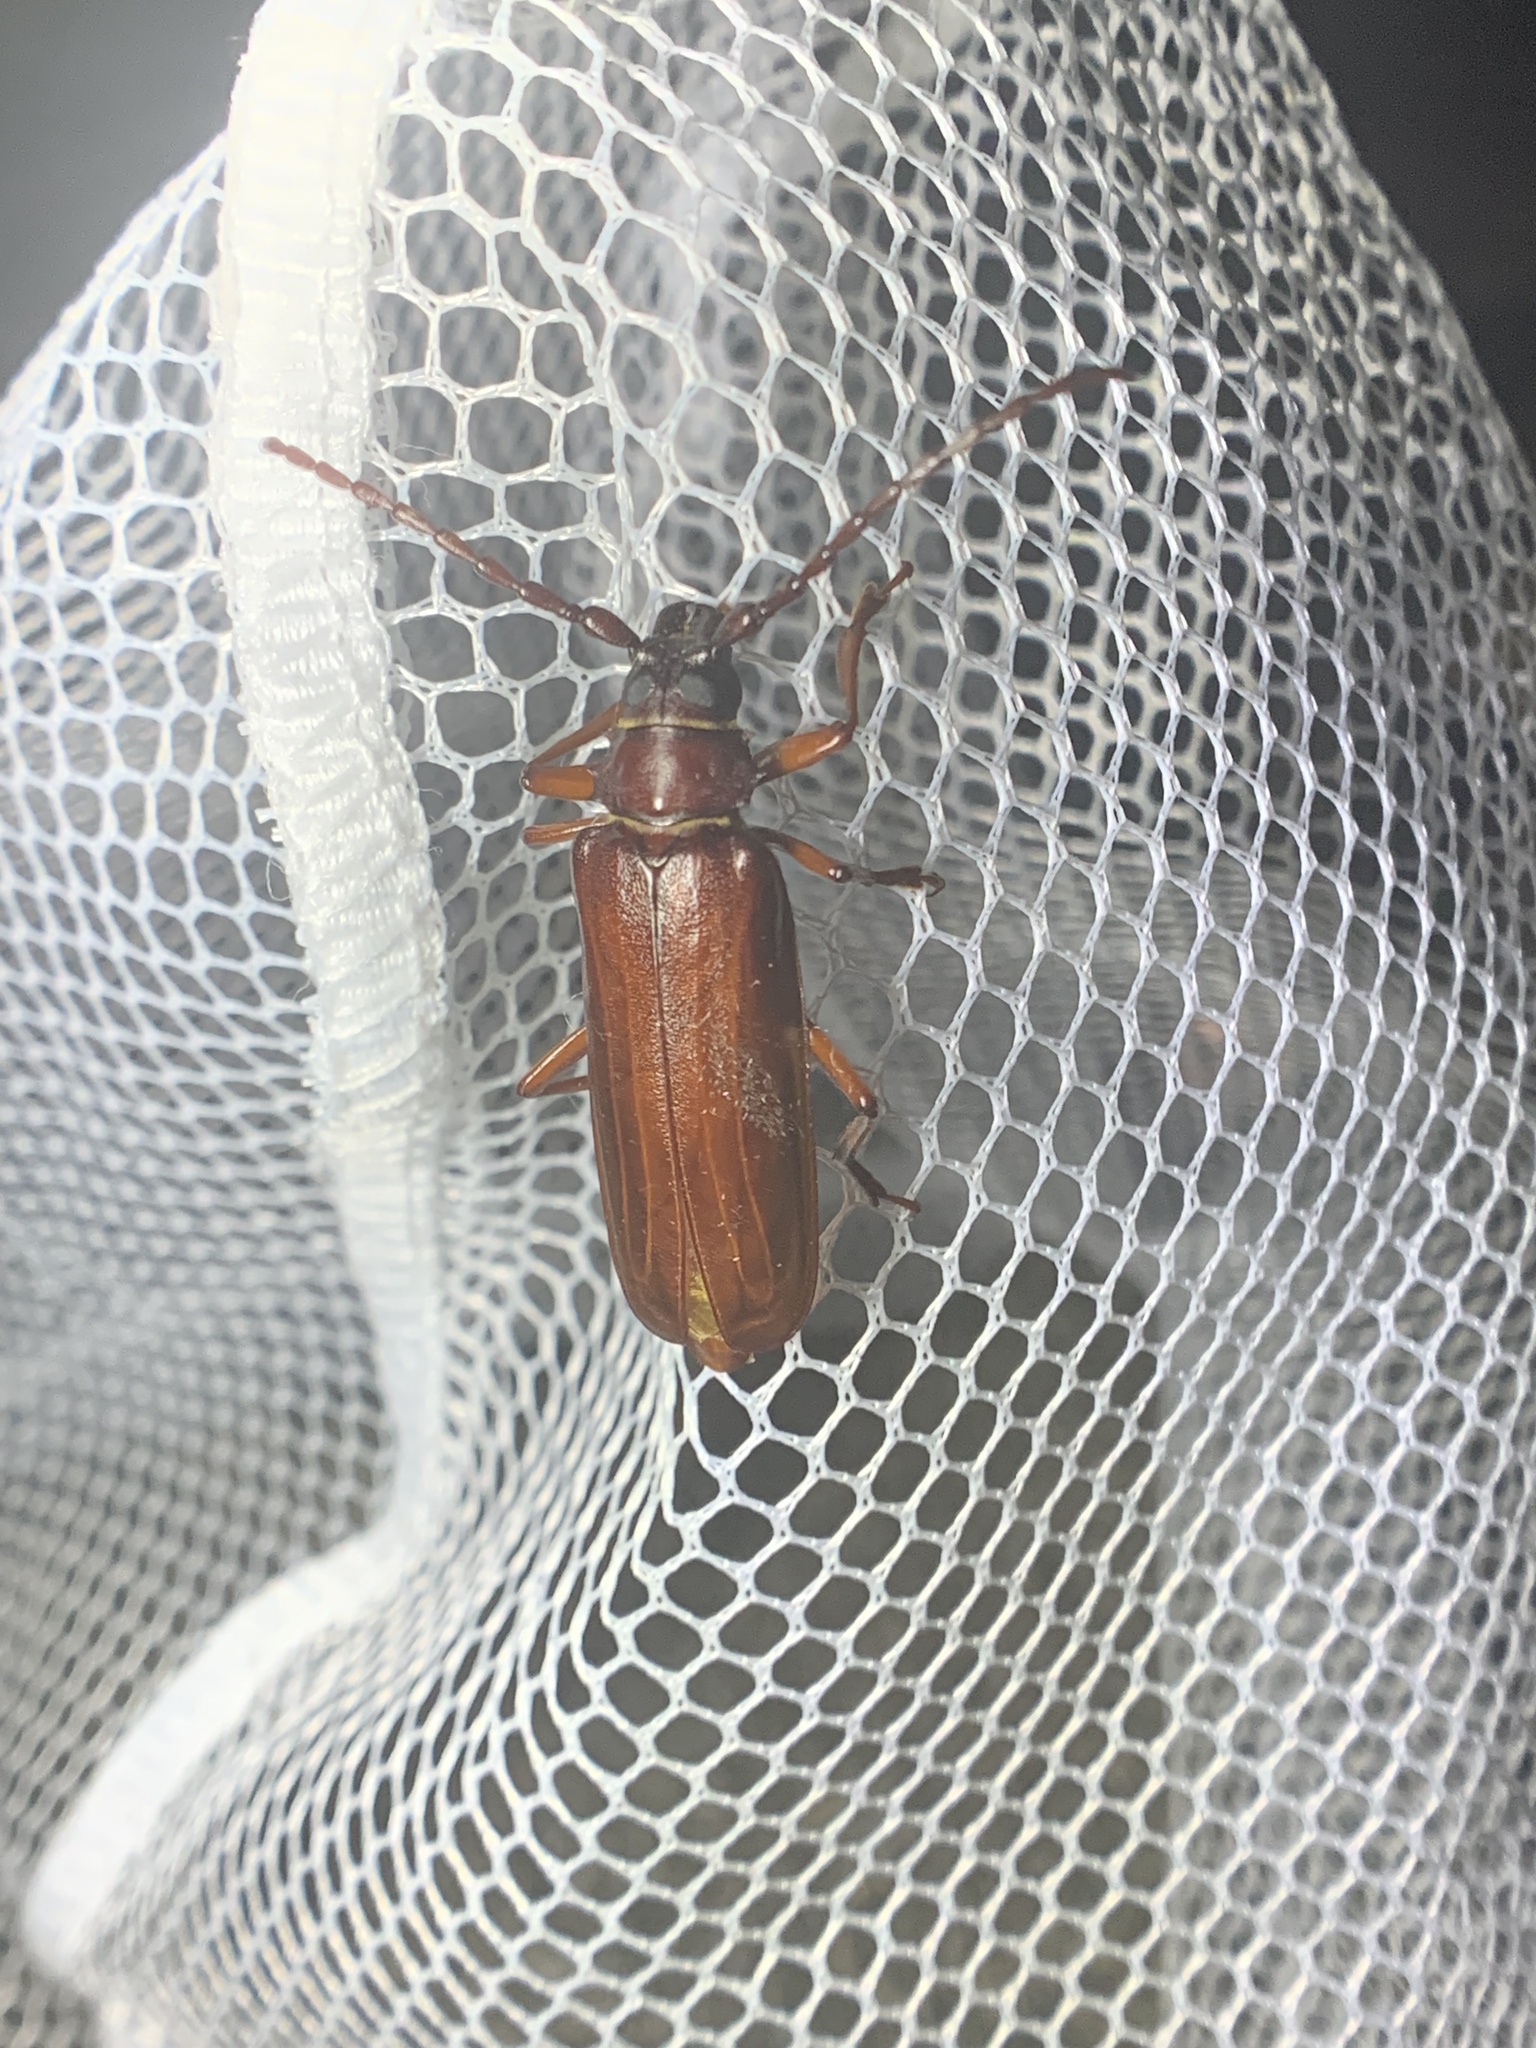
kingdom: Animalia
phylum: Arthropoda
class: Insecta
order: Coleoptera
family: Cerambycidae
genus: Orthosoma
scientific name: Orthosoma brunneum
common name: Brown prionid beetle
